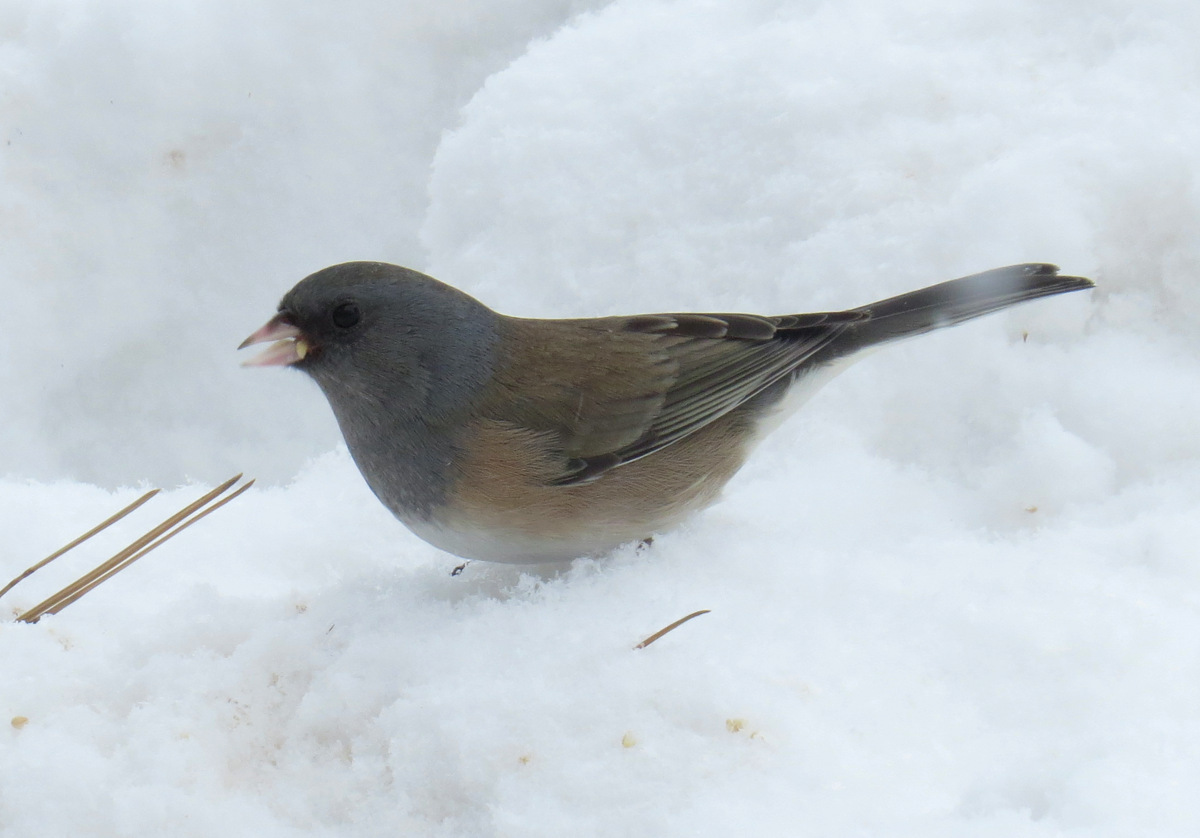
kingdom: Animalia
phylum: Chordata
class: Aves
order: Passeriformes
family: Passerellidae
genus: Junco
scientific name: Junco hyemalis
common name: Dark-eyed junco
